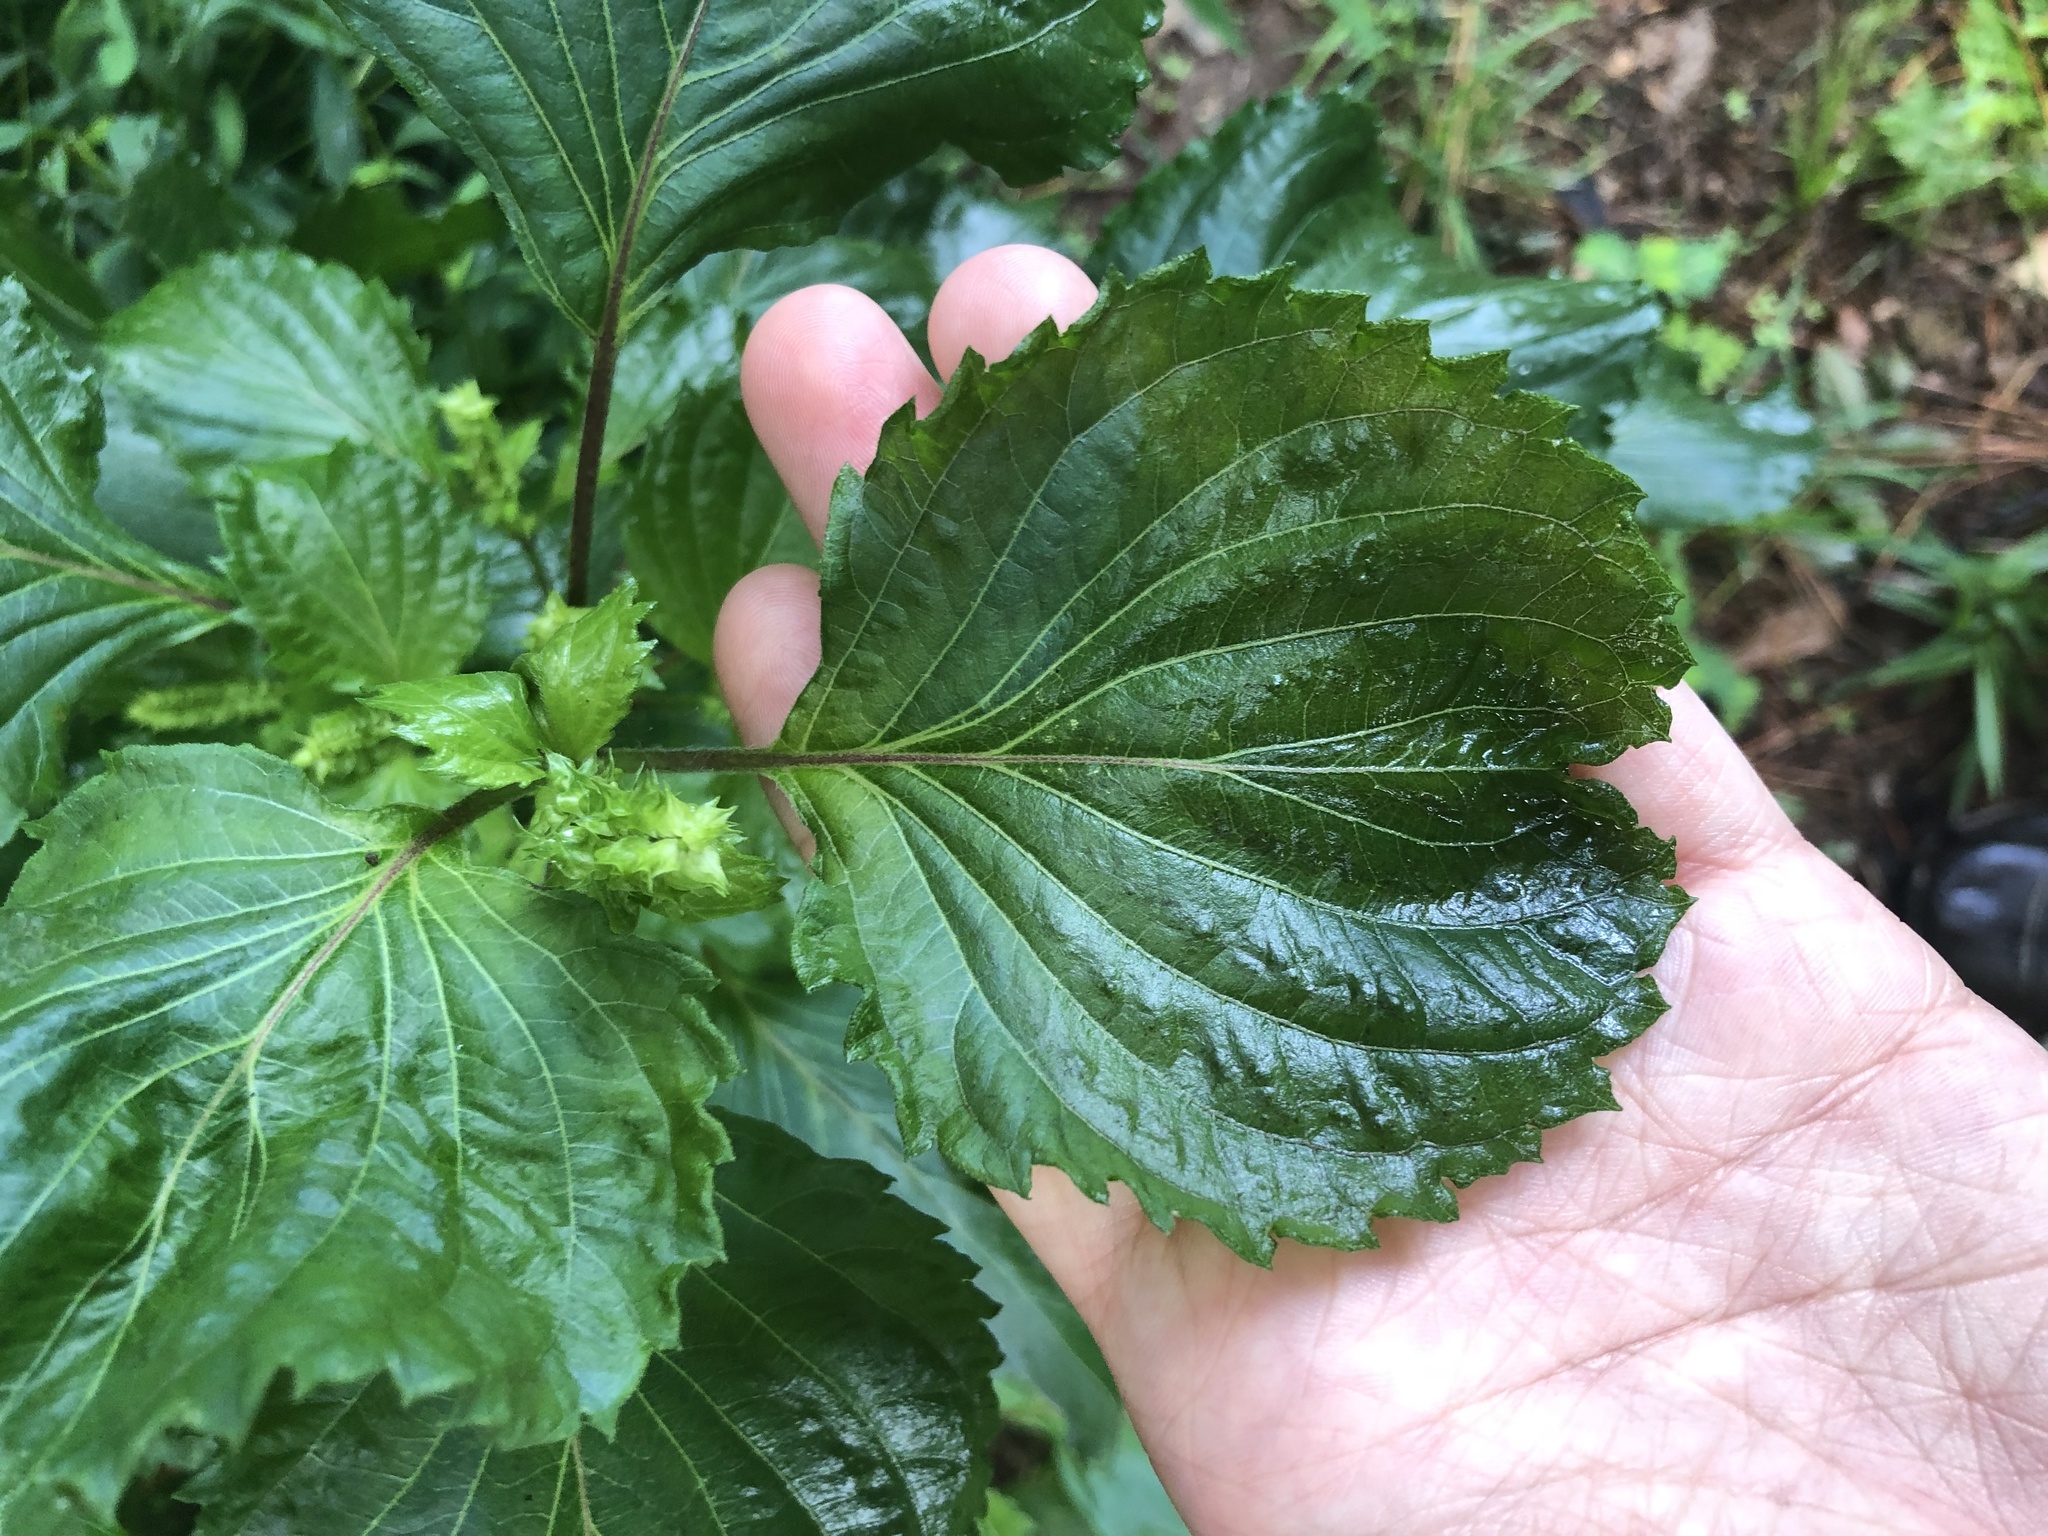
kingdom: Plantae
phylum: Tracheophyta
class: Magnoliopsida
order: Lamiales
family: Lamiaceae
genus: Perilla
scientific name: Perilla frutescens
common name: Perilla
